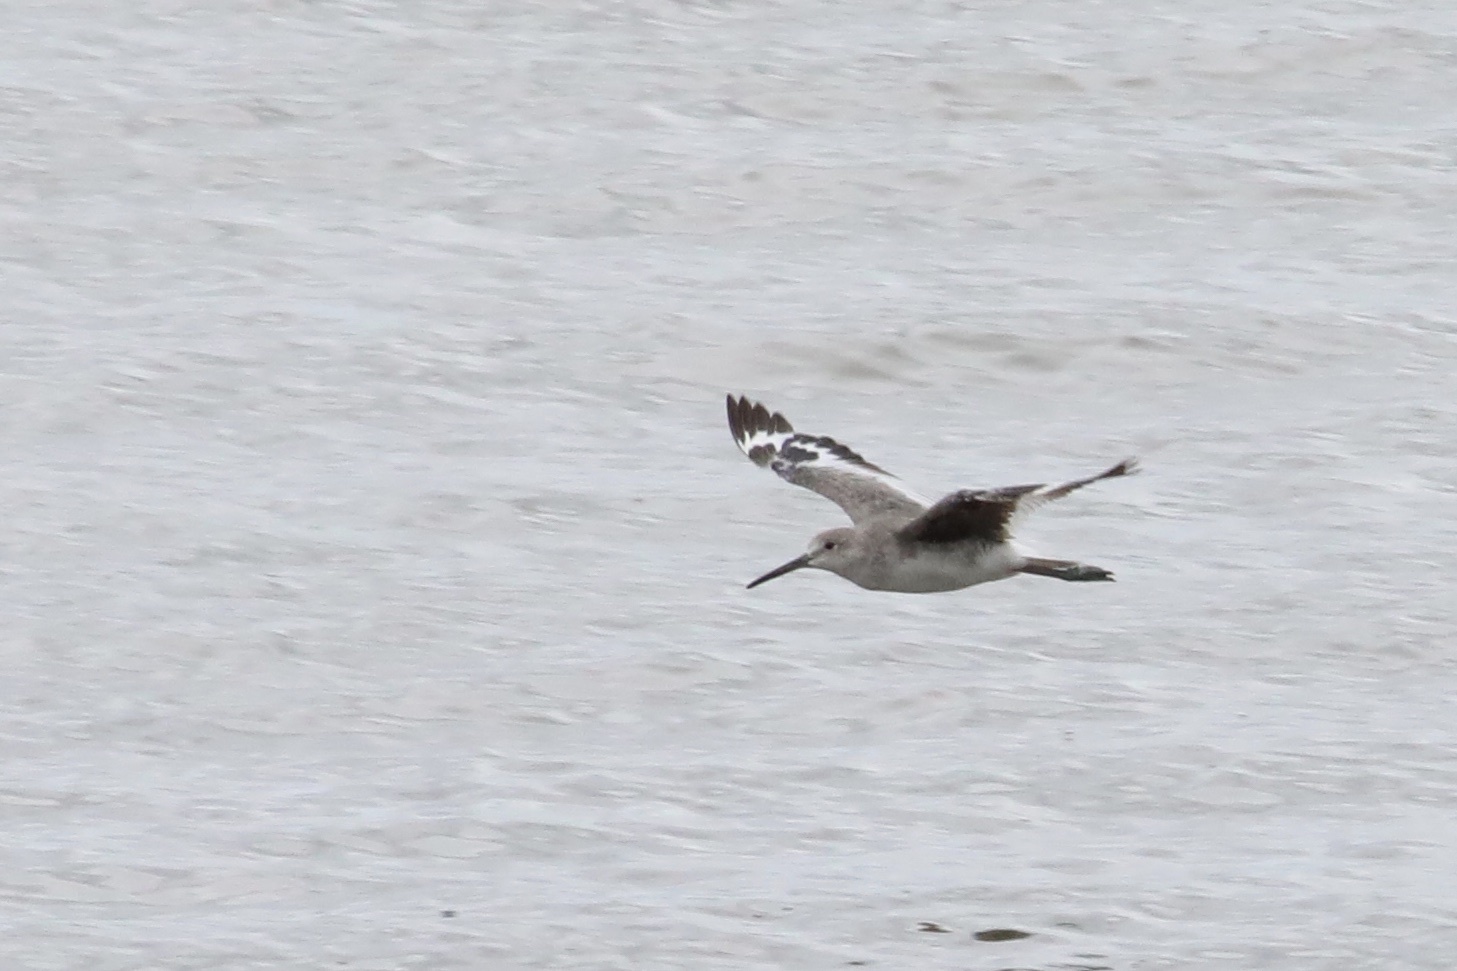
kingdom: Animalia
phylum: Chordata
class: Aves
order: Charadriiformes
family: Scolopacidae
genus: Tringa
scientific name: Tringa semipalmata
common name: Willet
